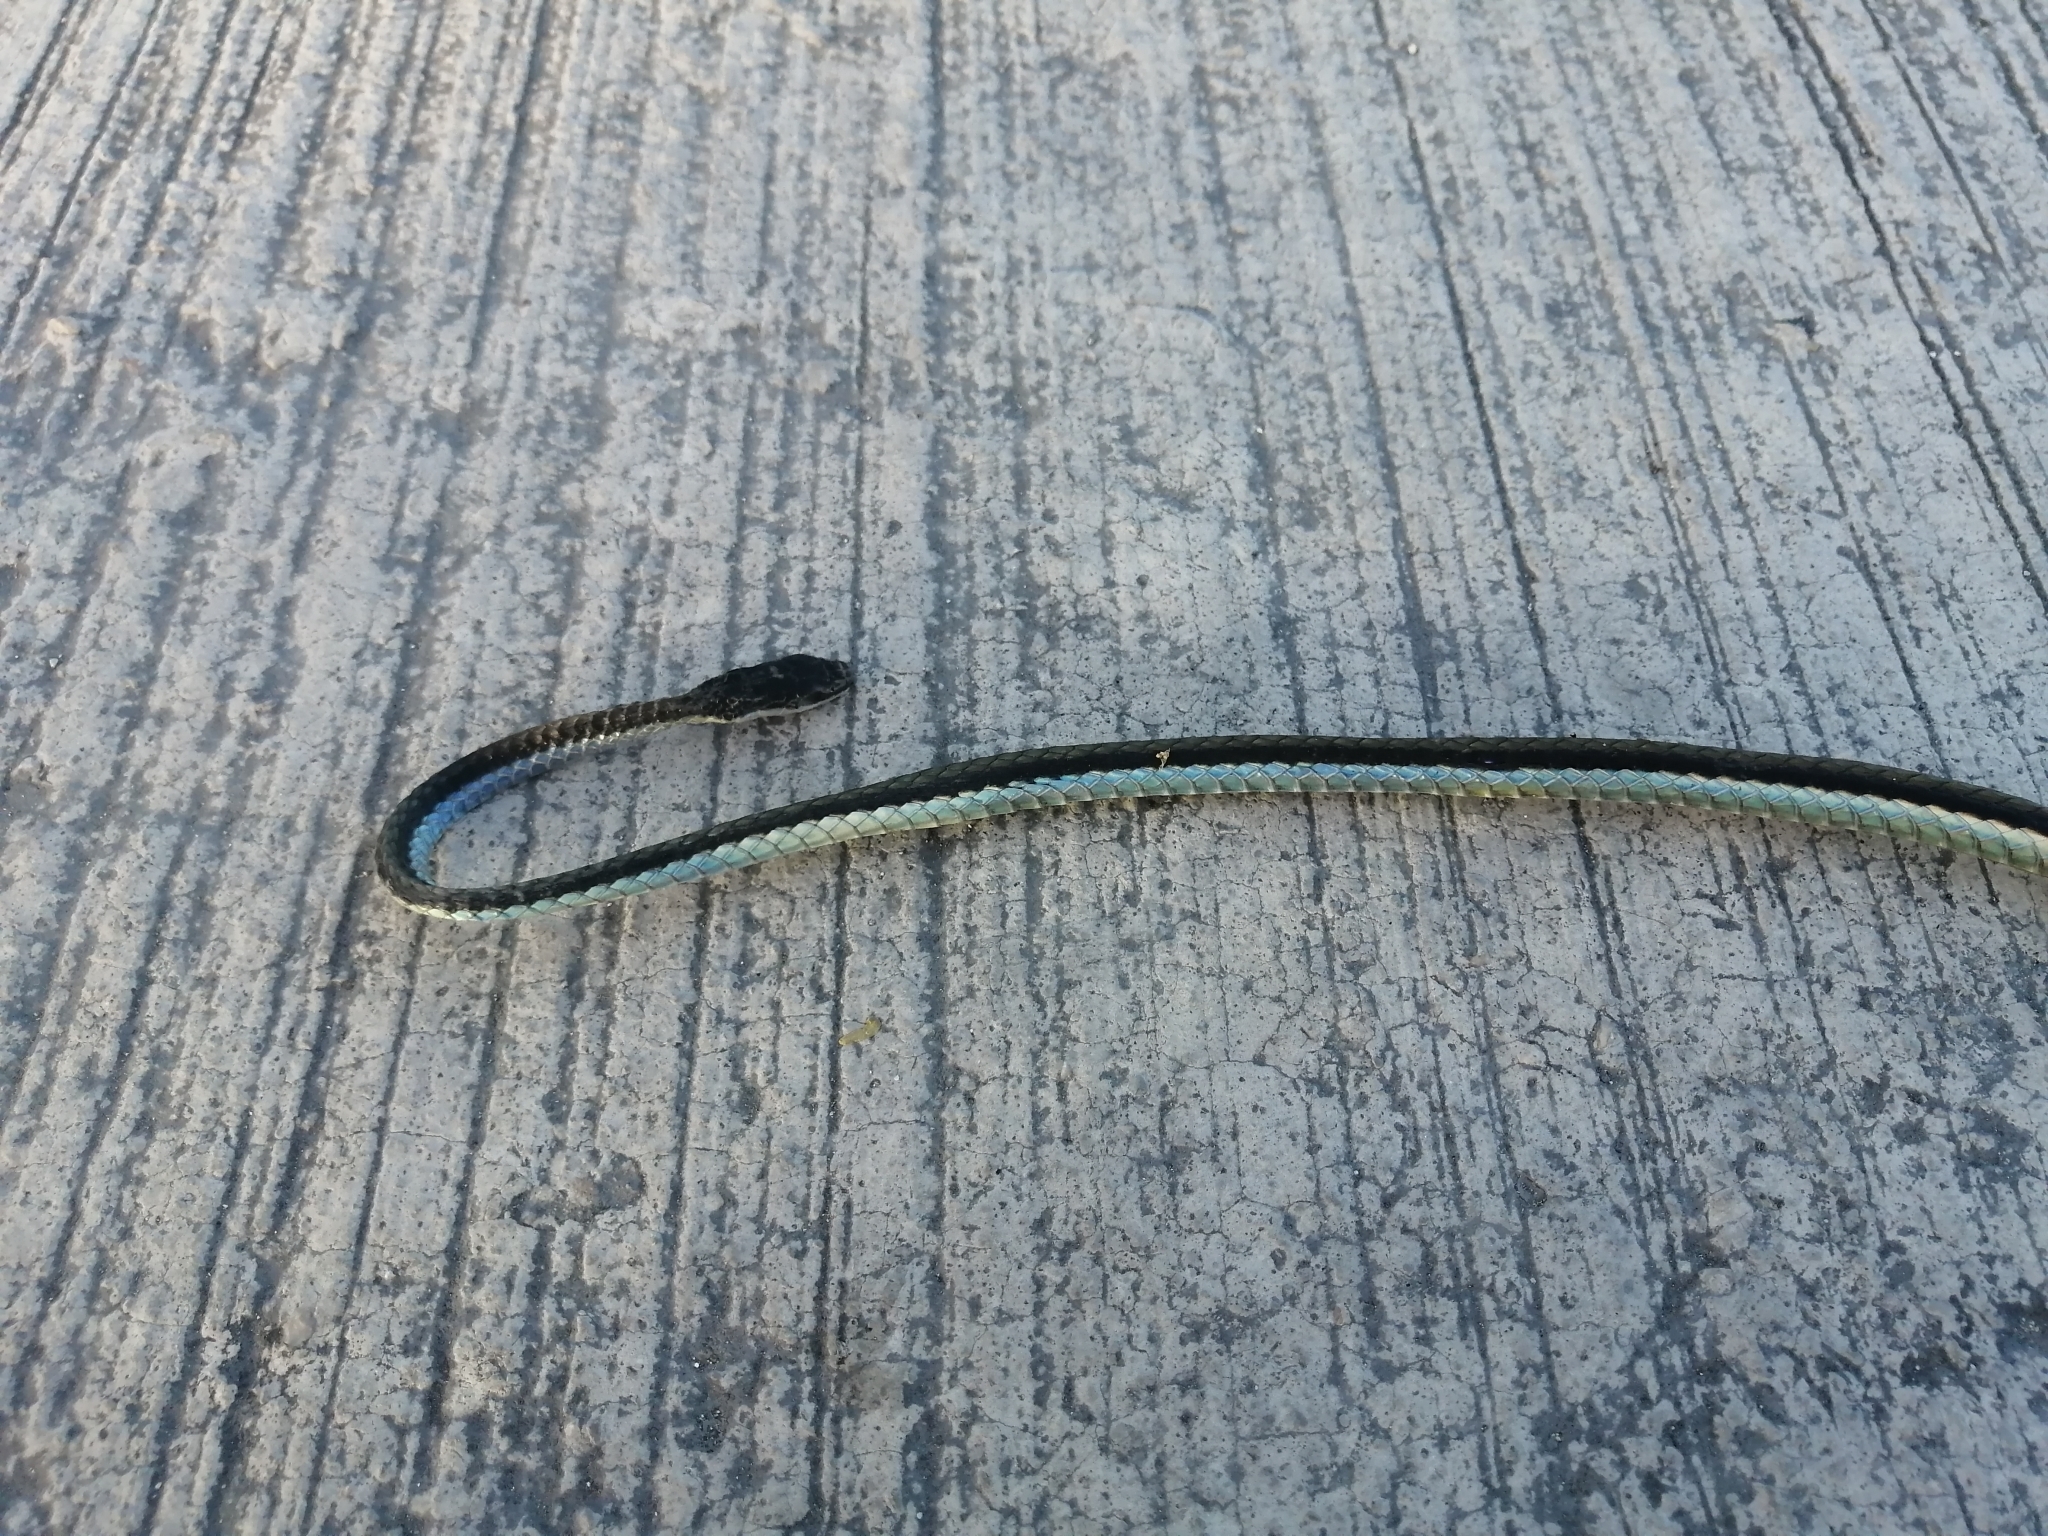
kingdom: Animalia
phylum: Chordata
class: Squamata
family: Colubridae
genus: Leptophis
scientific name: Leptophis mexicanus
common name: Mexican parrot snake
